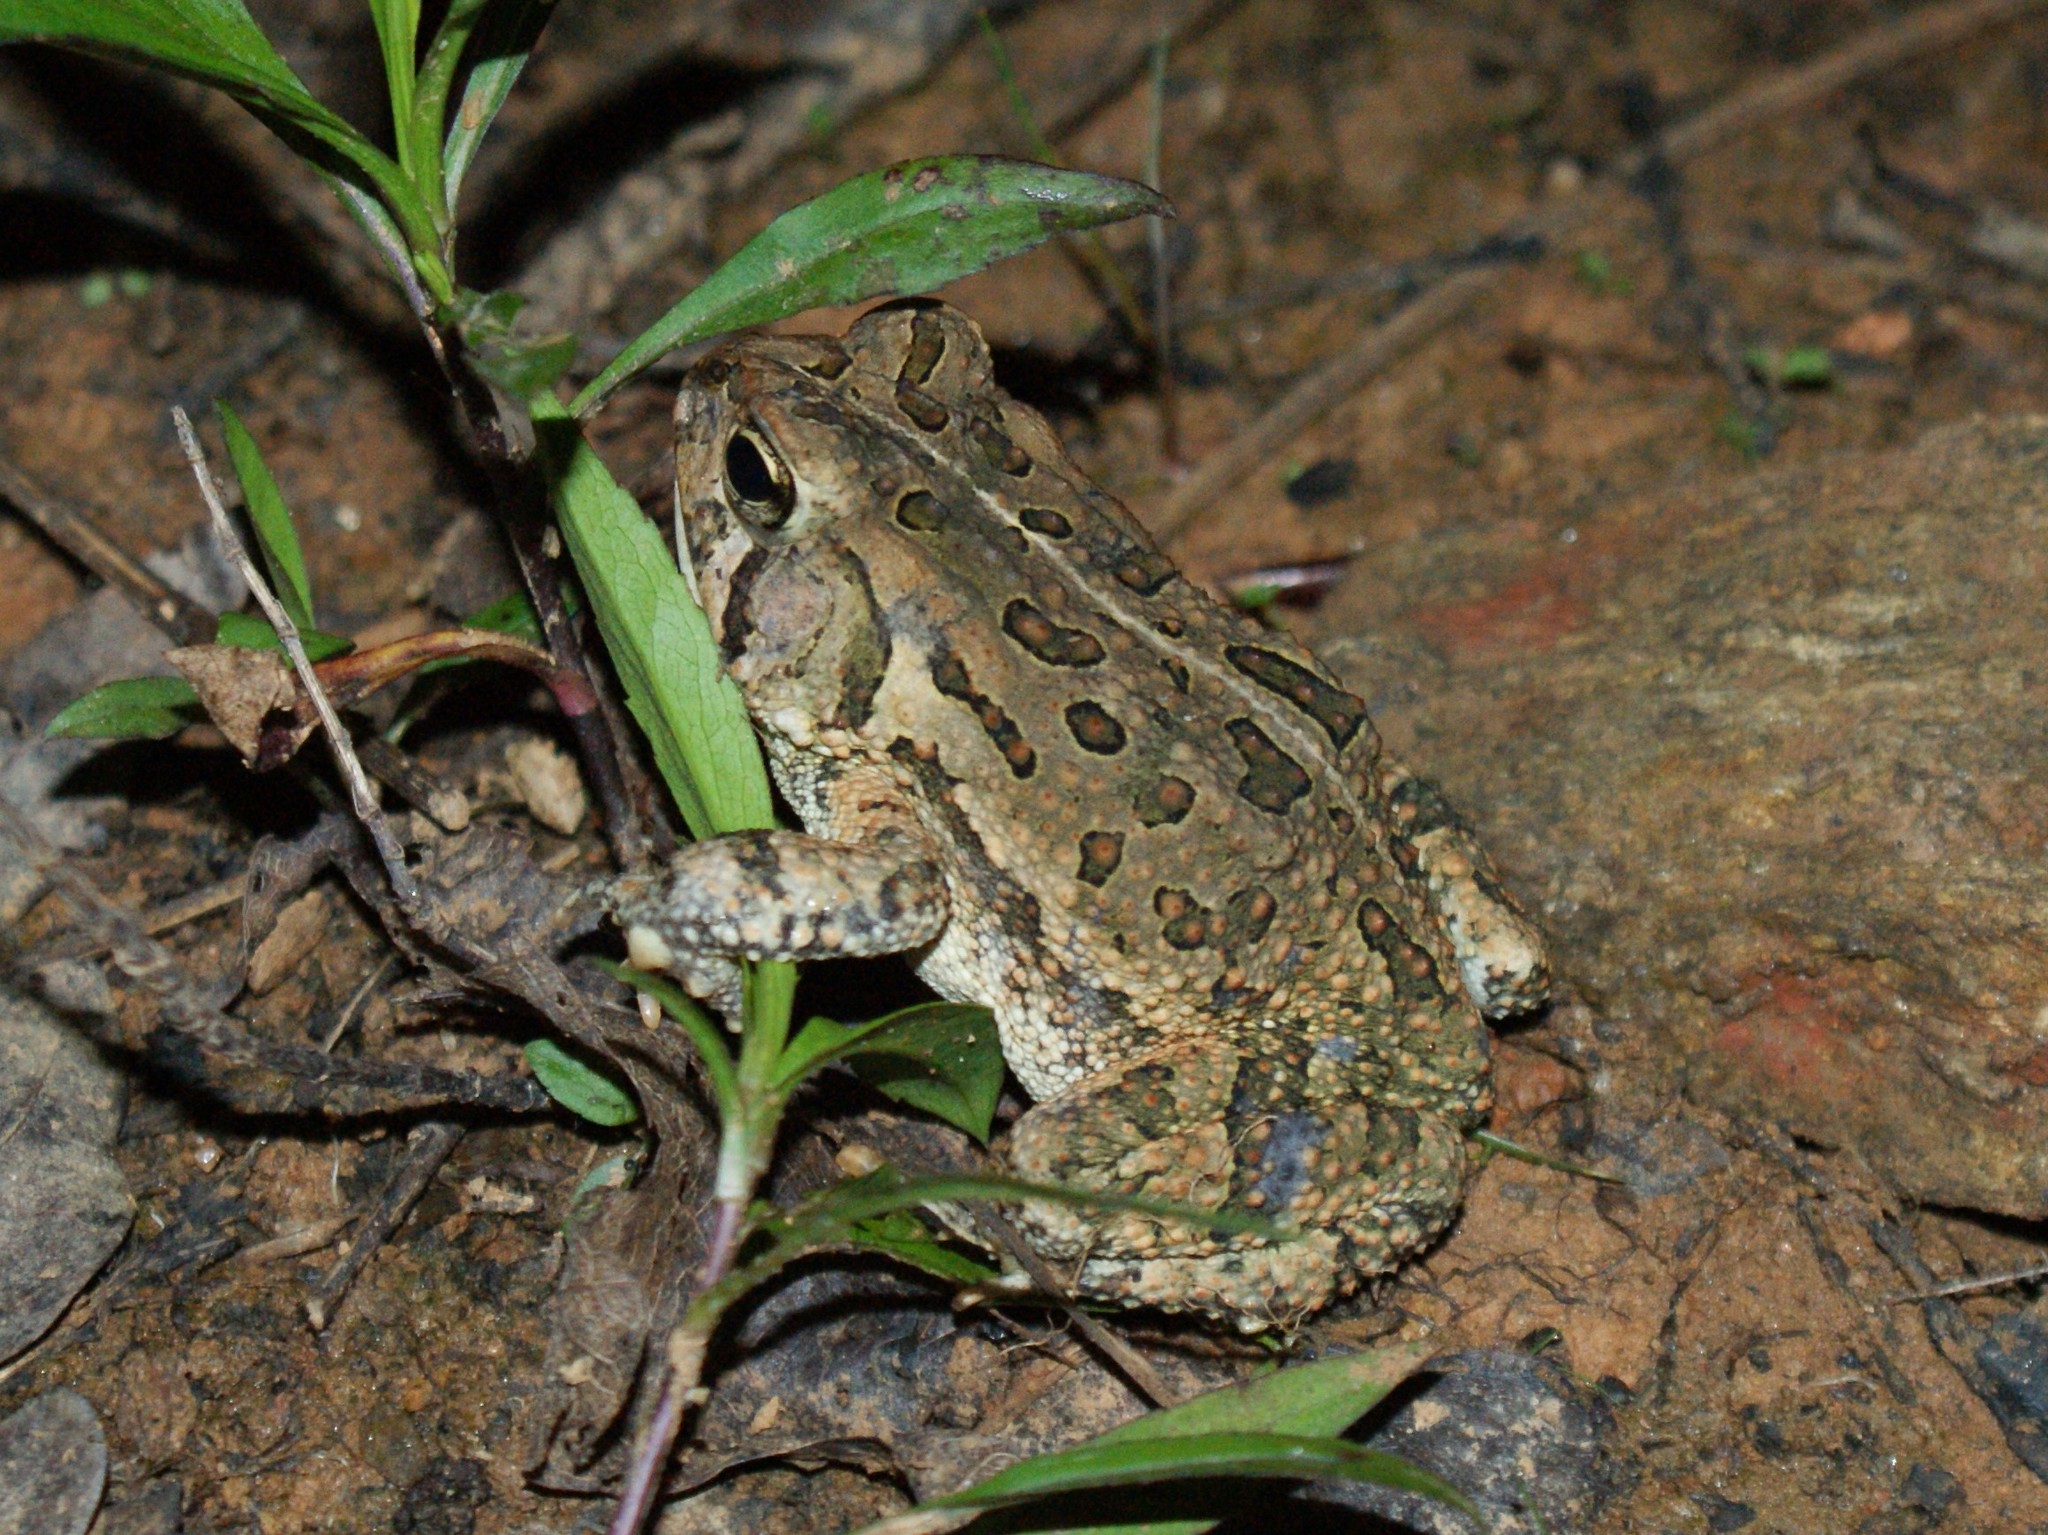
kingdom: Animalia
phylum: Chordata
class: Amphibia
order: Anura
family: Bufonidae
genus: Anaxyrus
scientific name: Anaxyrus fowleri
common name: Fowler's toad
